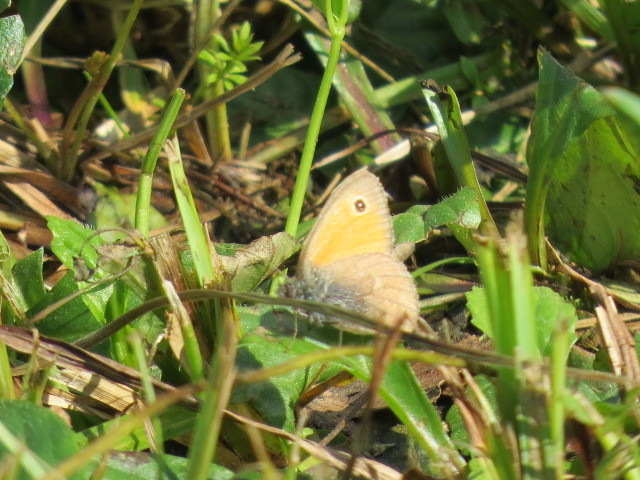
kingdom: Animalia
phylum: Arthropoda
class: Insecta
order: Lepidoptera
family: Nymphalidae
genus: Coenonympha
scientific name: Coenonympha pamphilus
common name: Small heath
